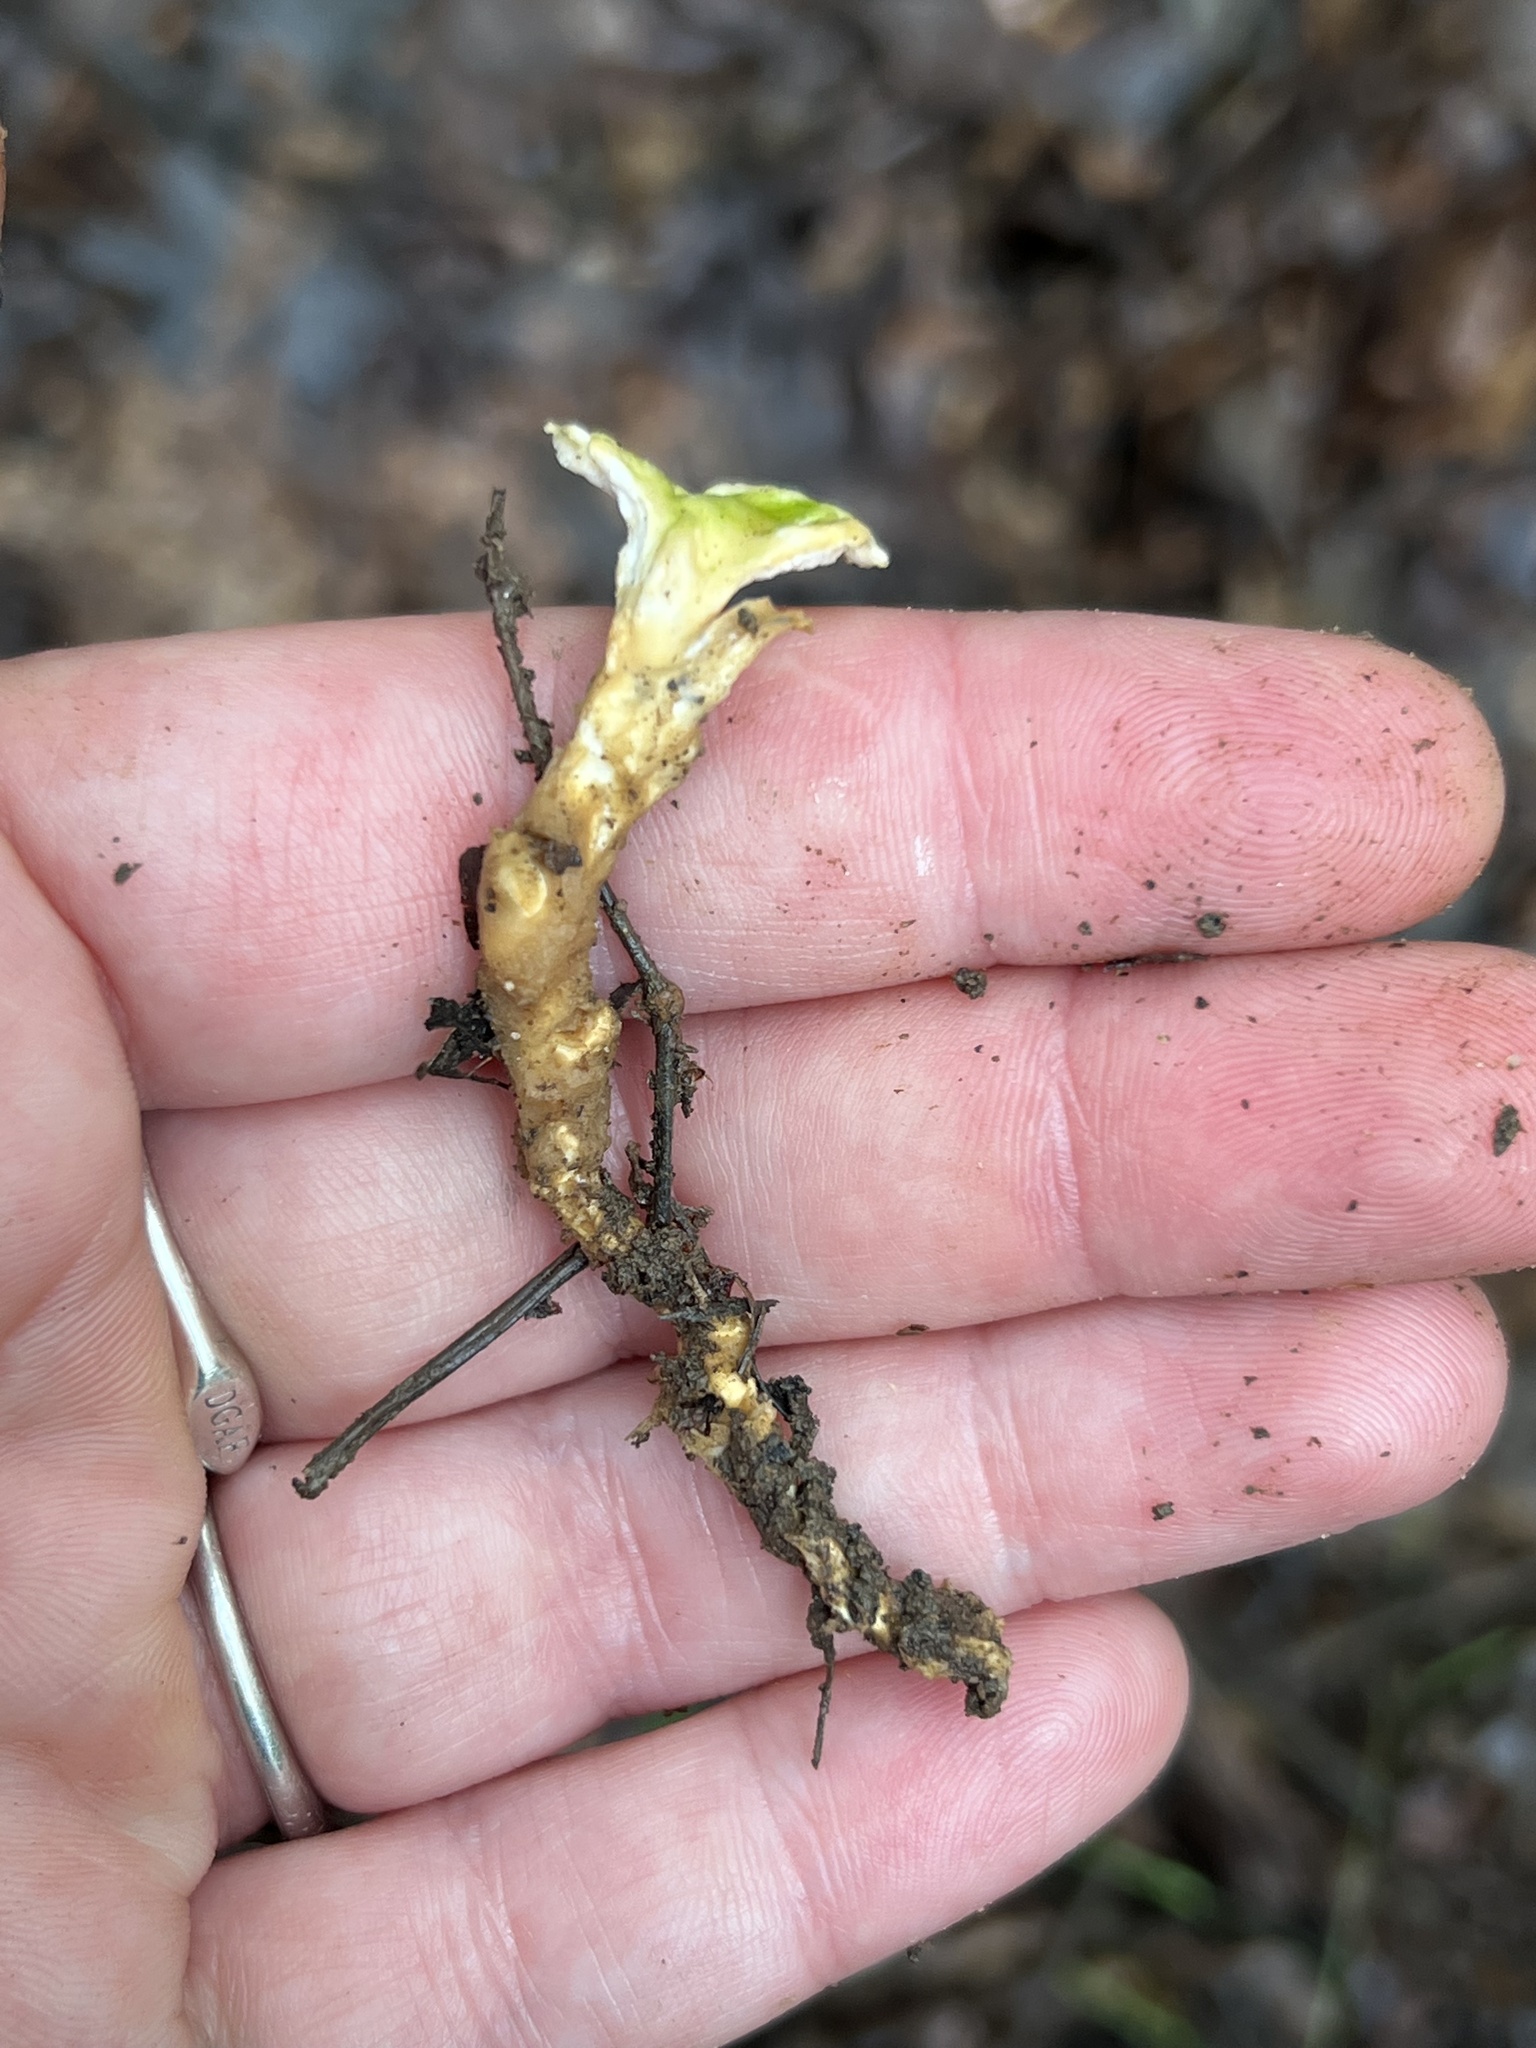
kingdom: Fungi
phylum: Basidiomycota
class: Agaricomycetes
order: Polyporales
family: Steccherinaceae
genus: Loweomyces
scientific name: Loweomyces fractipes
